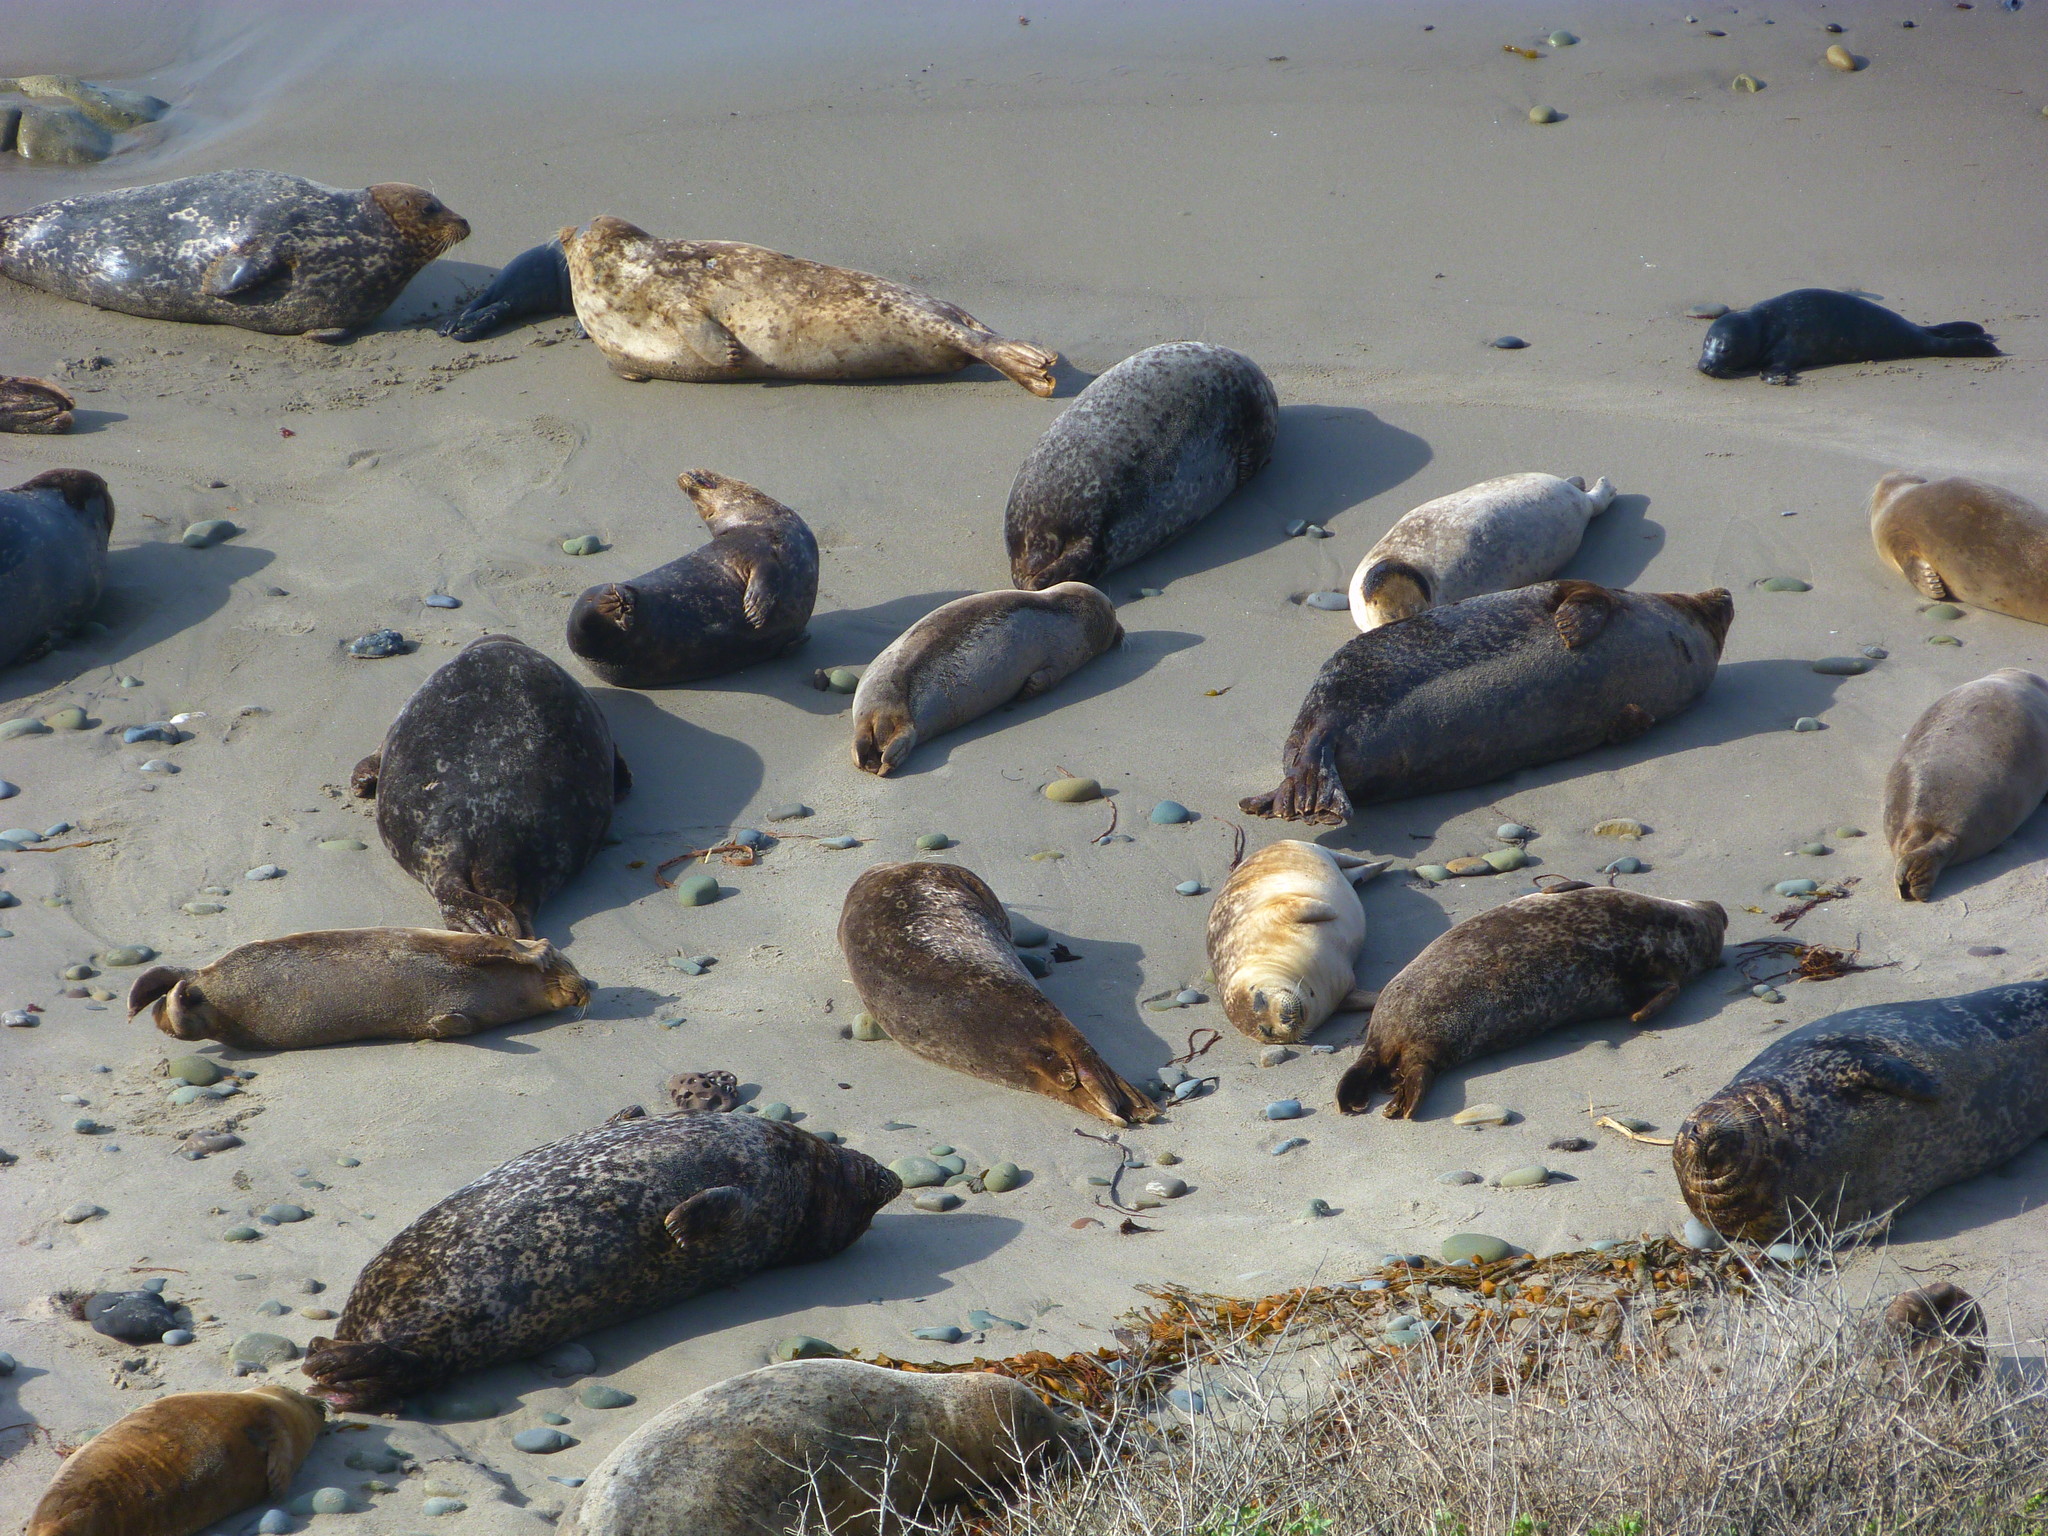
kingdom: Animalia
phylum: Chordata
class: Mammalia
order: Carnivora
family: Phocidae
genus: Phoca
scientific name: Phoca vitulina
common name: Harbor seal
